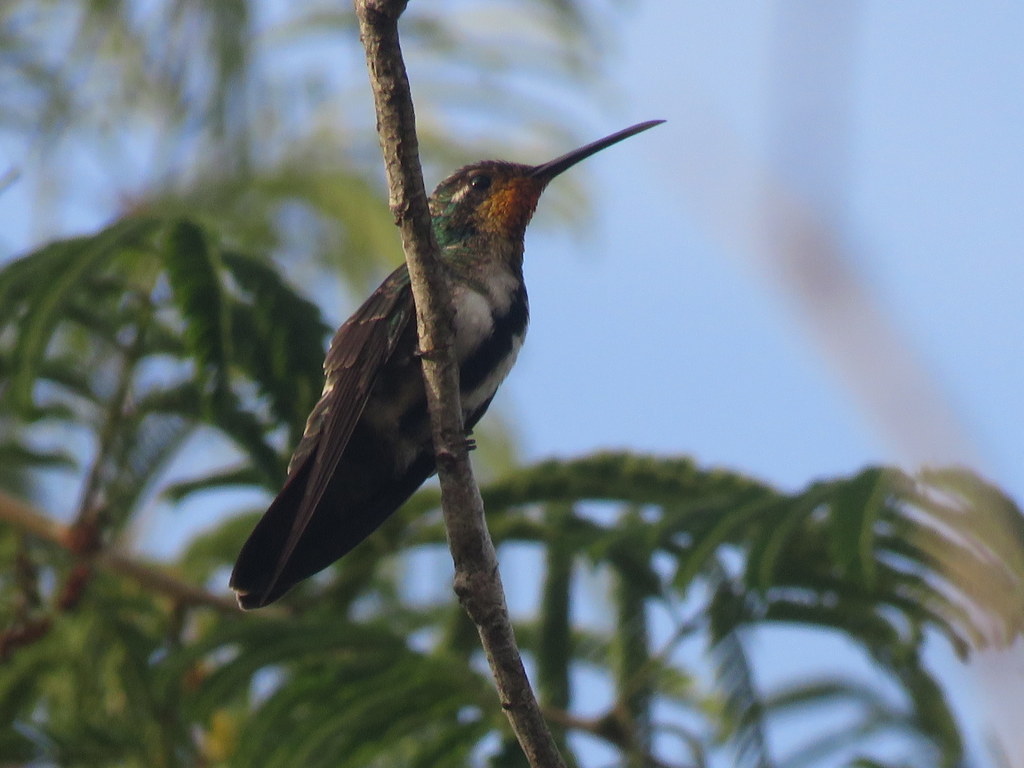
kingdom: Animalia
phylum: Chordata
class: Aves
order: Apodiformes
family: Trochilidae
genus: Anthracothorax
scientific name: Anthracothorax nigricollis
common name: Black-throated mango
